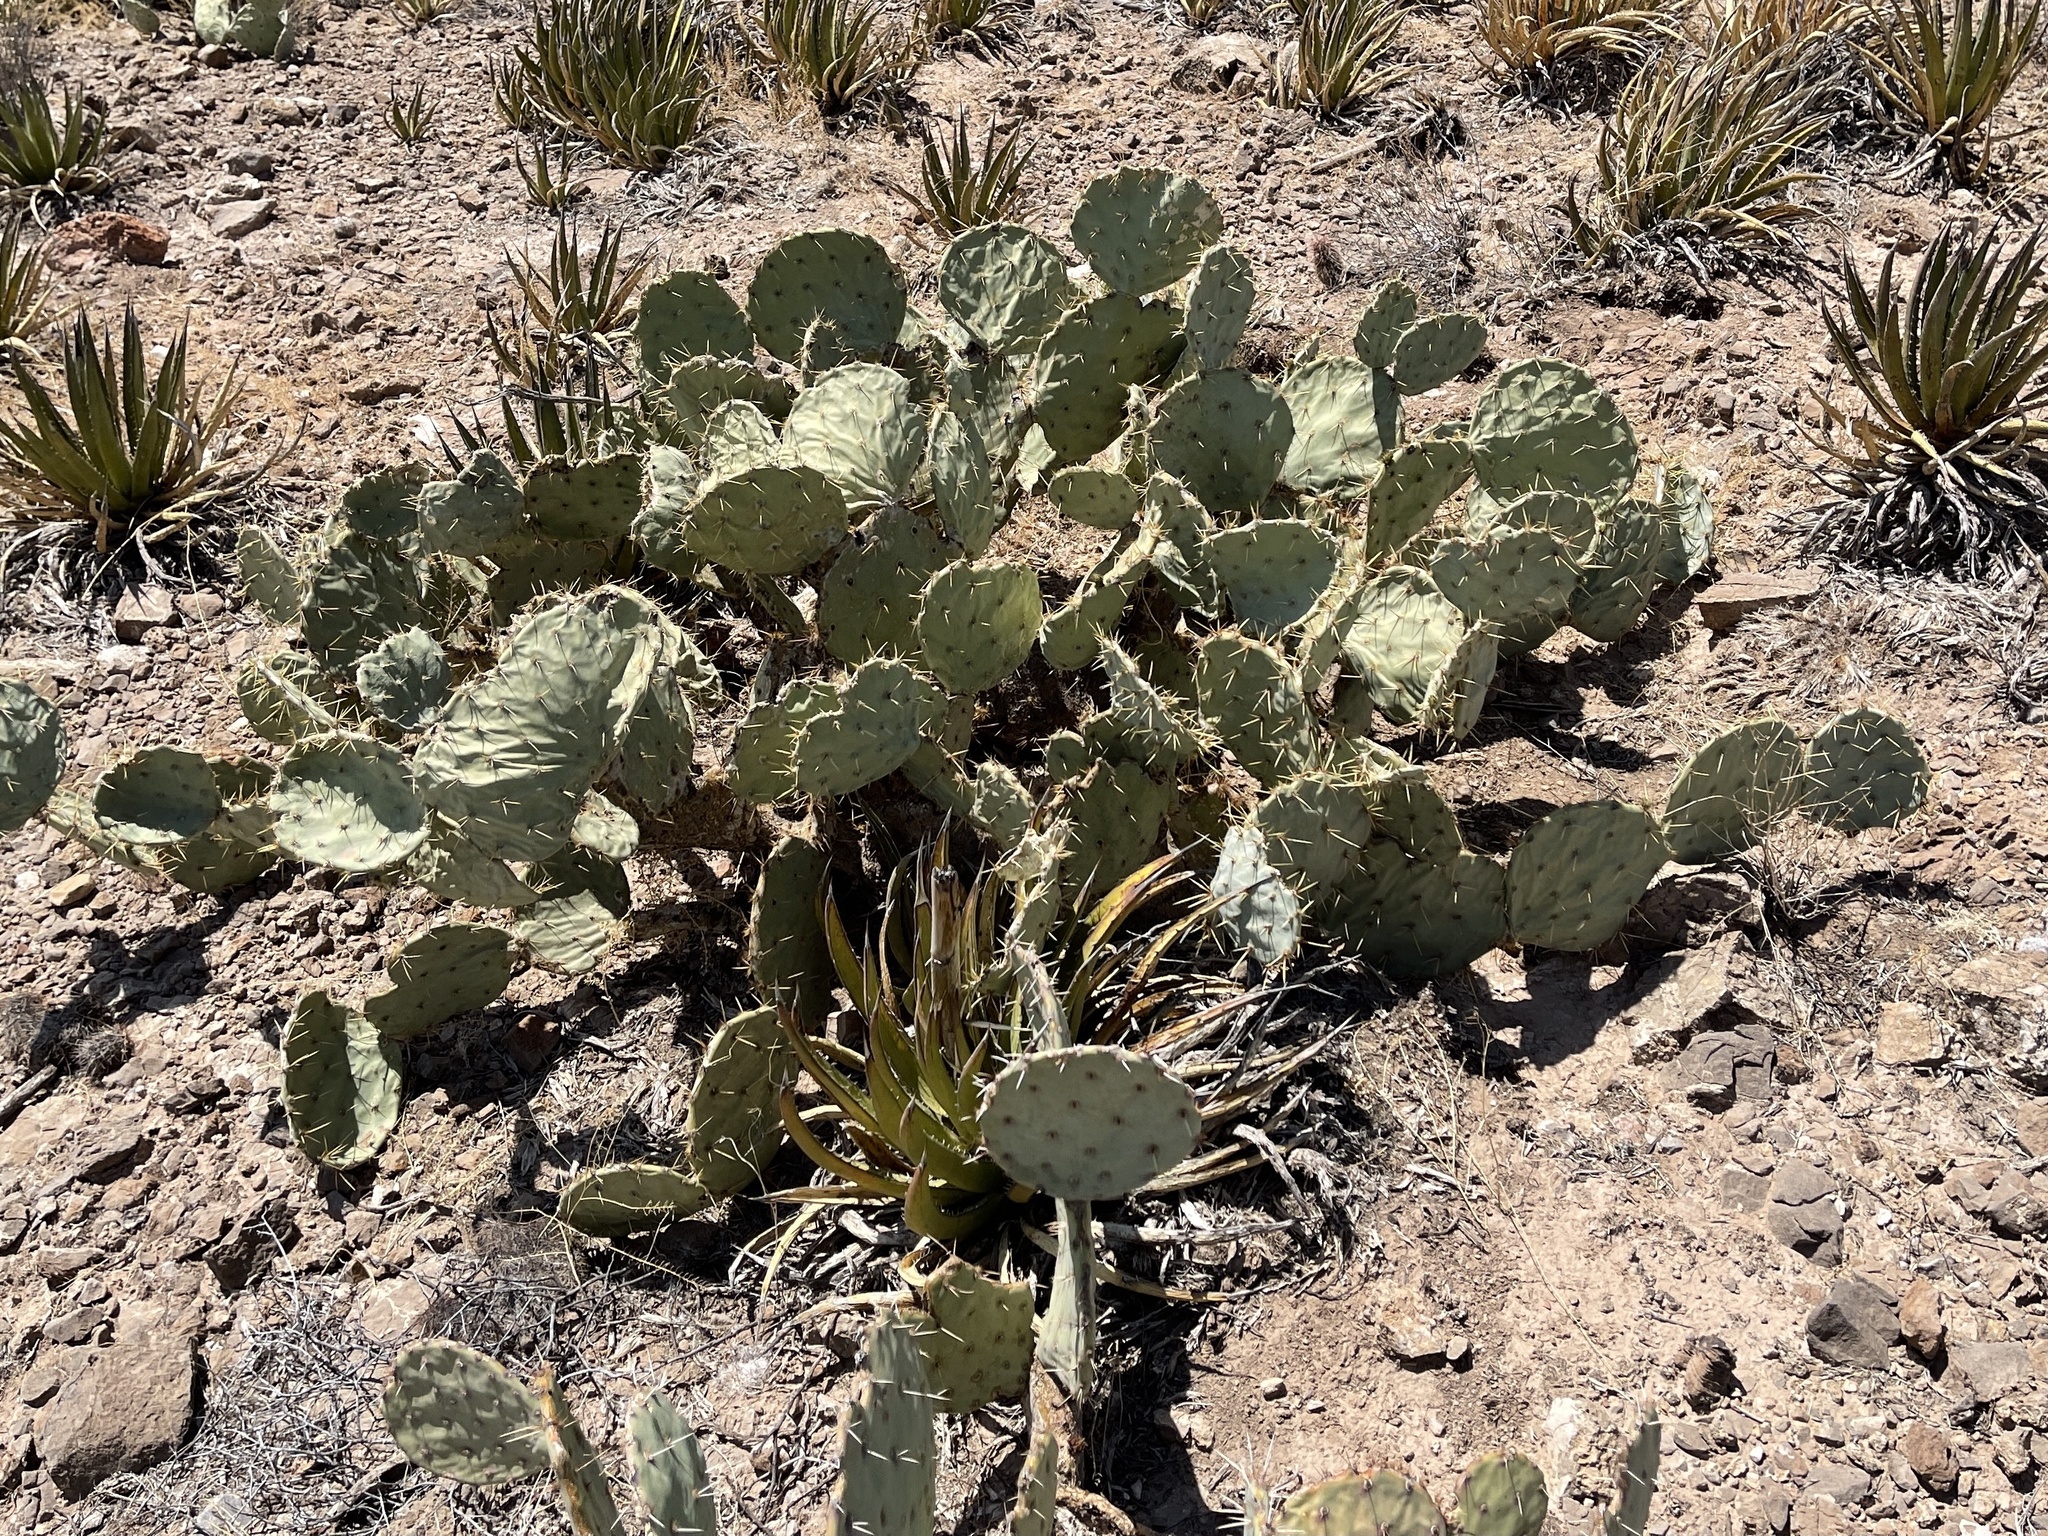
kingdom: Plantae
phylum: Tracheophyta
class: Magnoliopsida
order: Caryophyllales
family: Cactaceae
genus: Opuntia
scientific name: Opuntia engelmannii
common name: Cactus-apple
